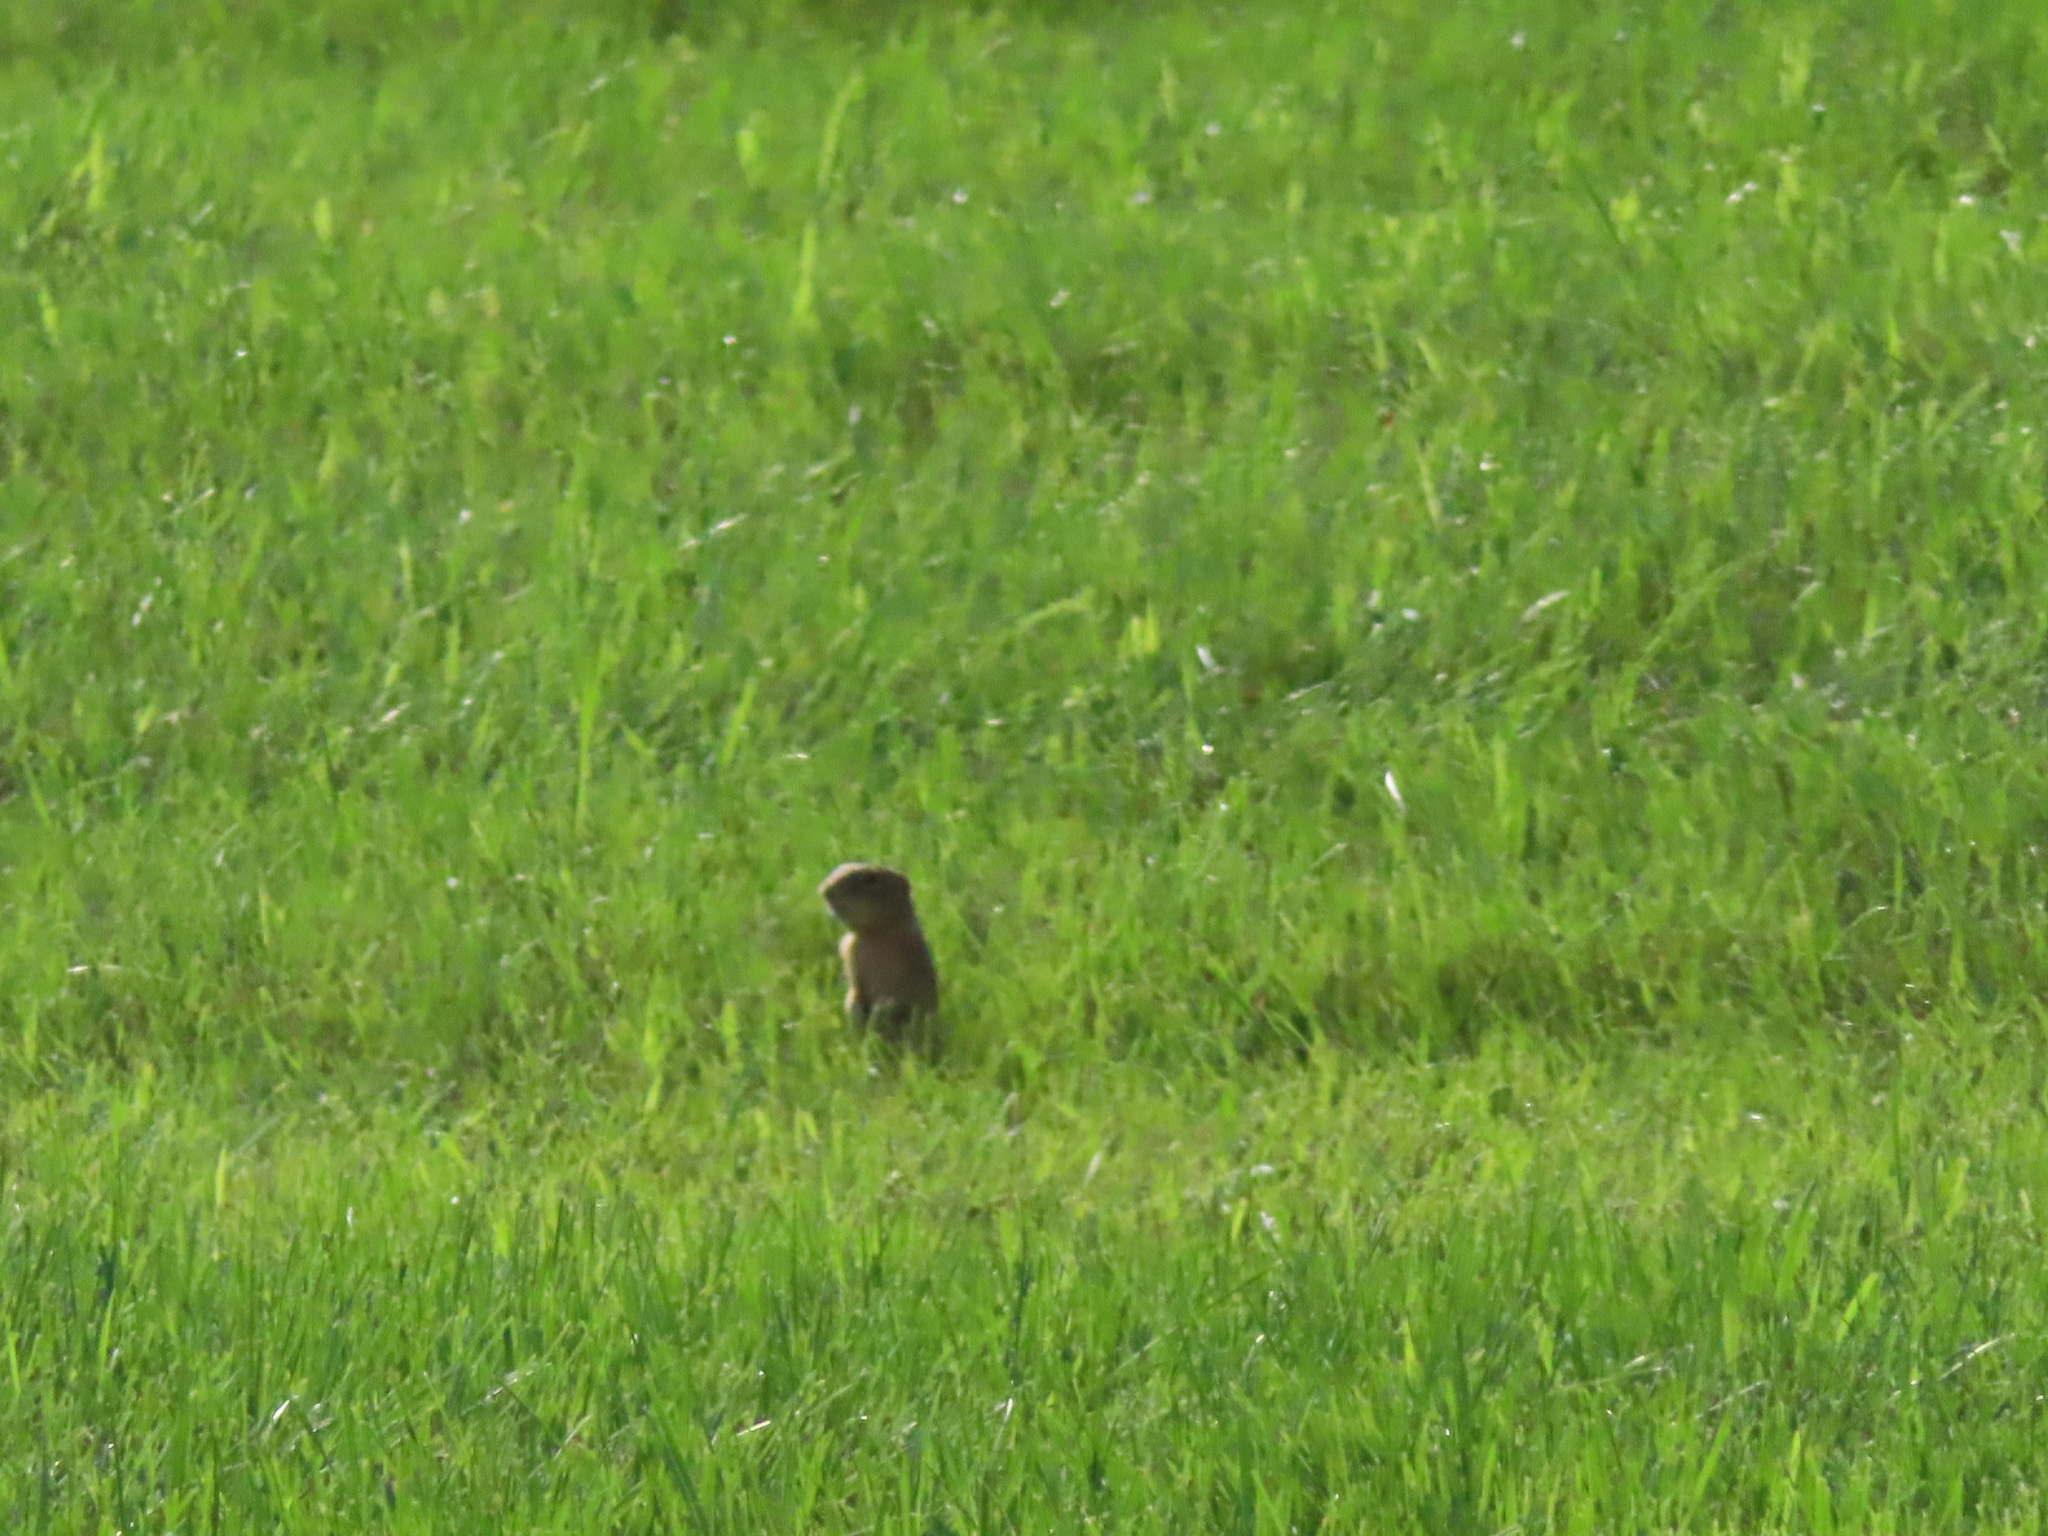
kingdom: Animalia
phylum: Chordata
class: Mammalia
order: Rodentia
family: Sciuridae
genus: Ictidomys
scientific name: Ictidomys tridecemlineatus
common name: Thirteen-lined ground squirrel
